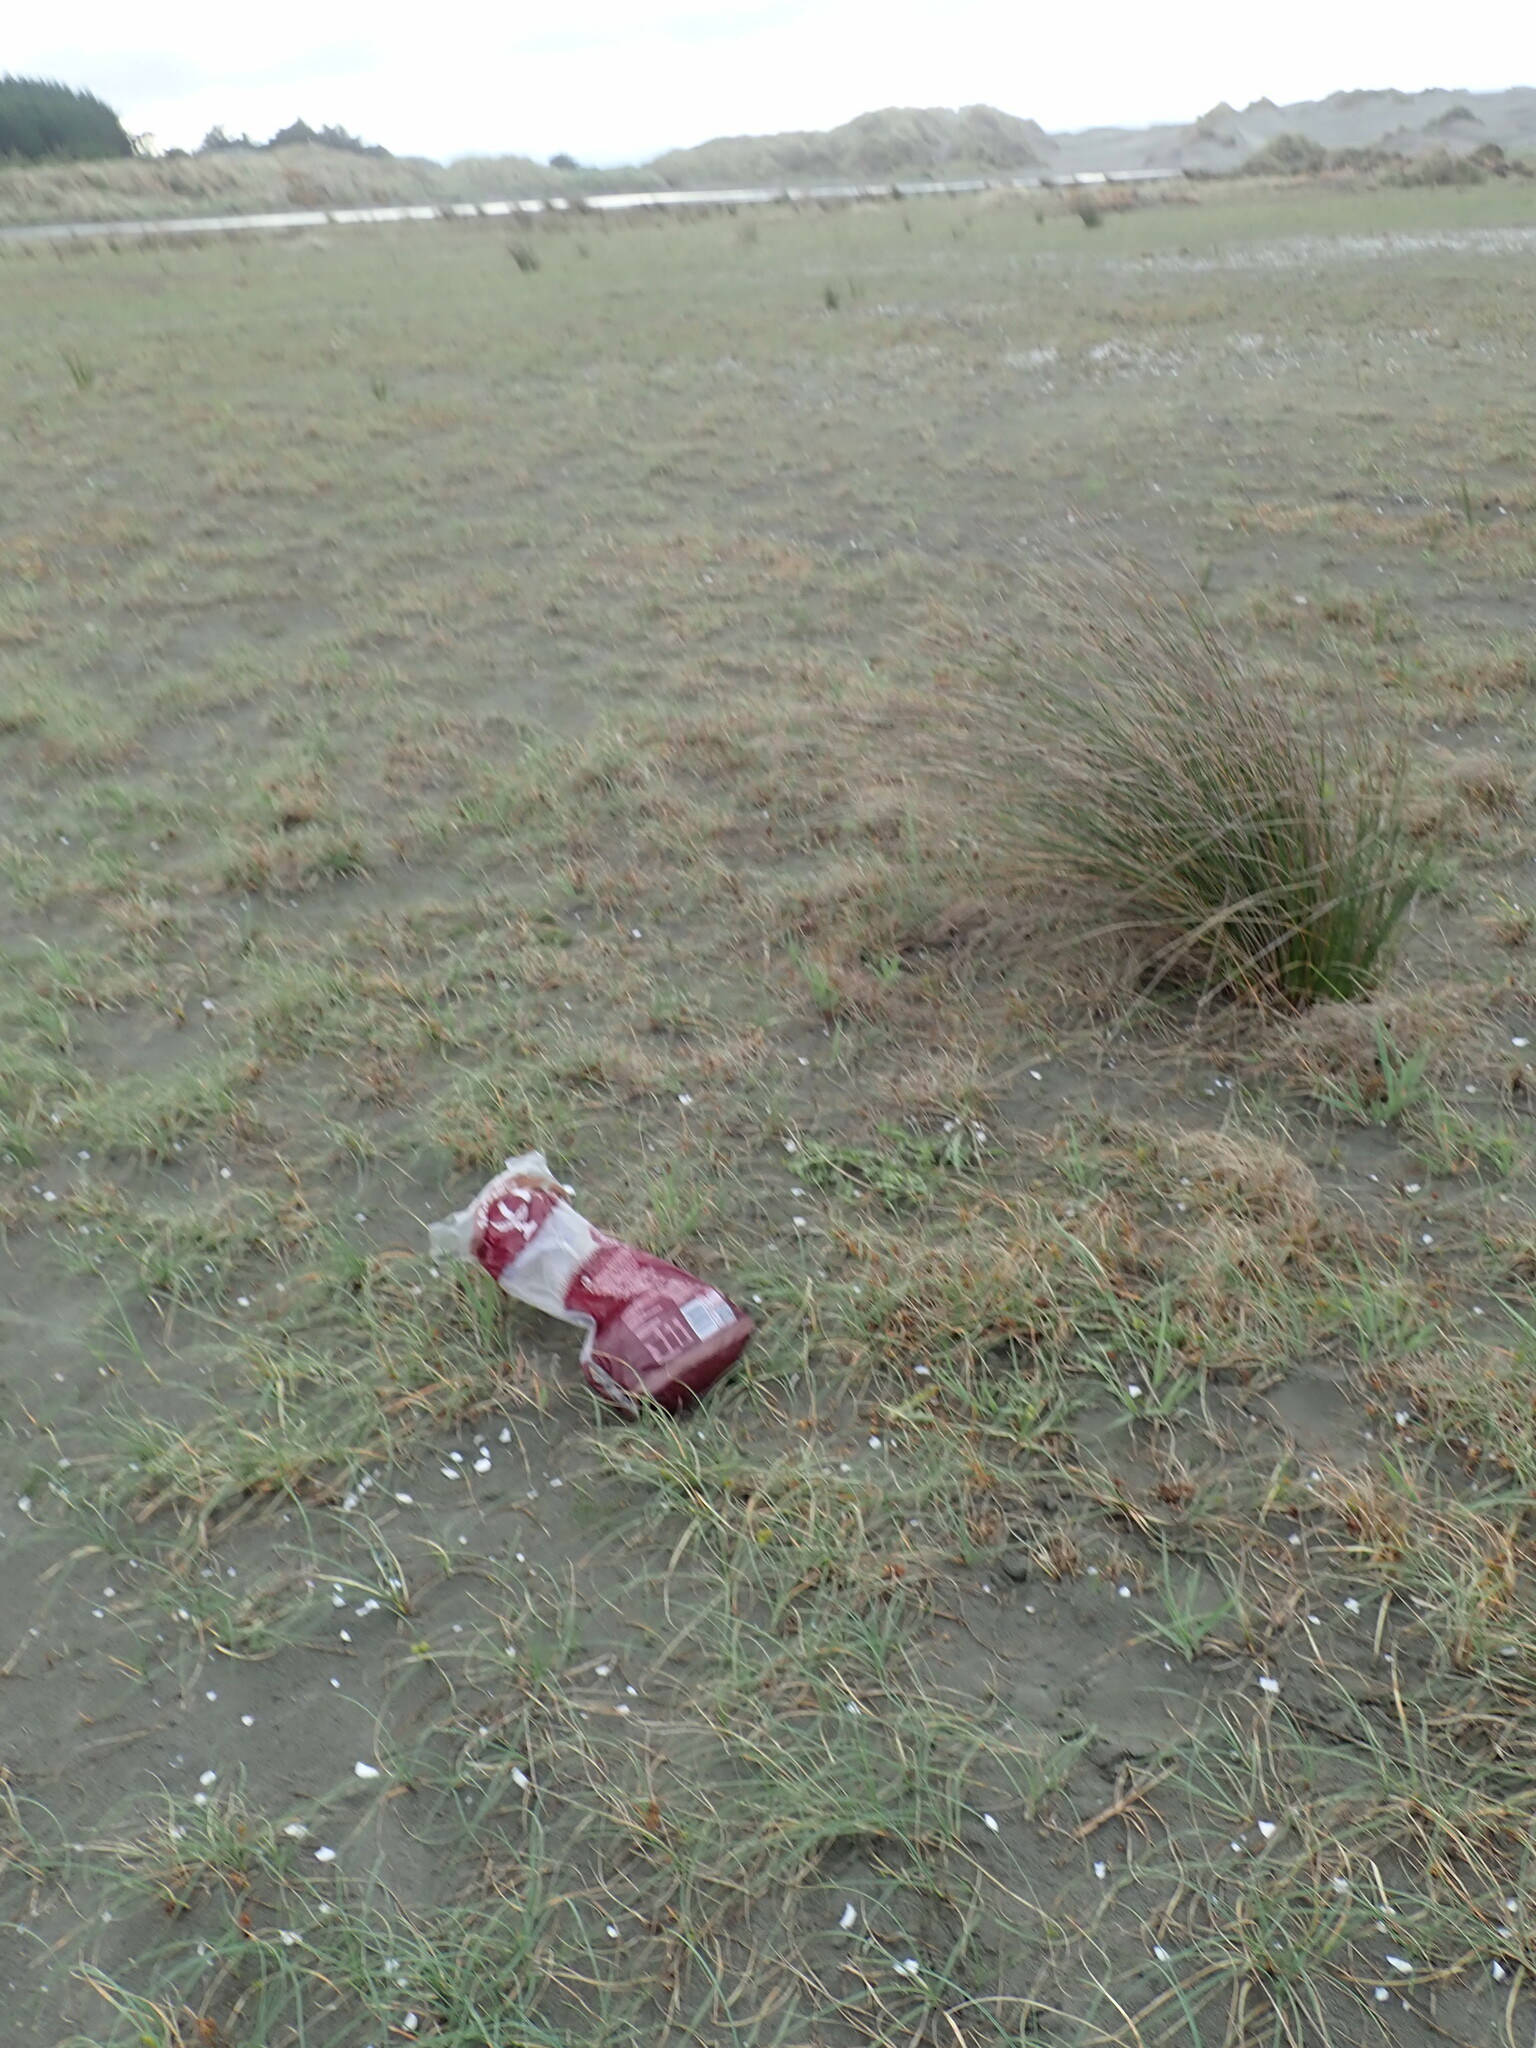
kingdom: Plantae
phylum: Tracheophyta
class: Liliopsida
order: Poales
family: Cyperaceae
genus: Carex
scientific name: Carex pumila
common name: Dwarf sedge
